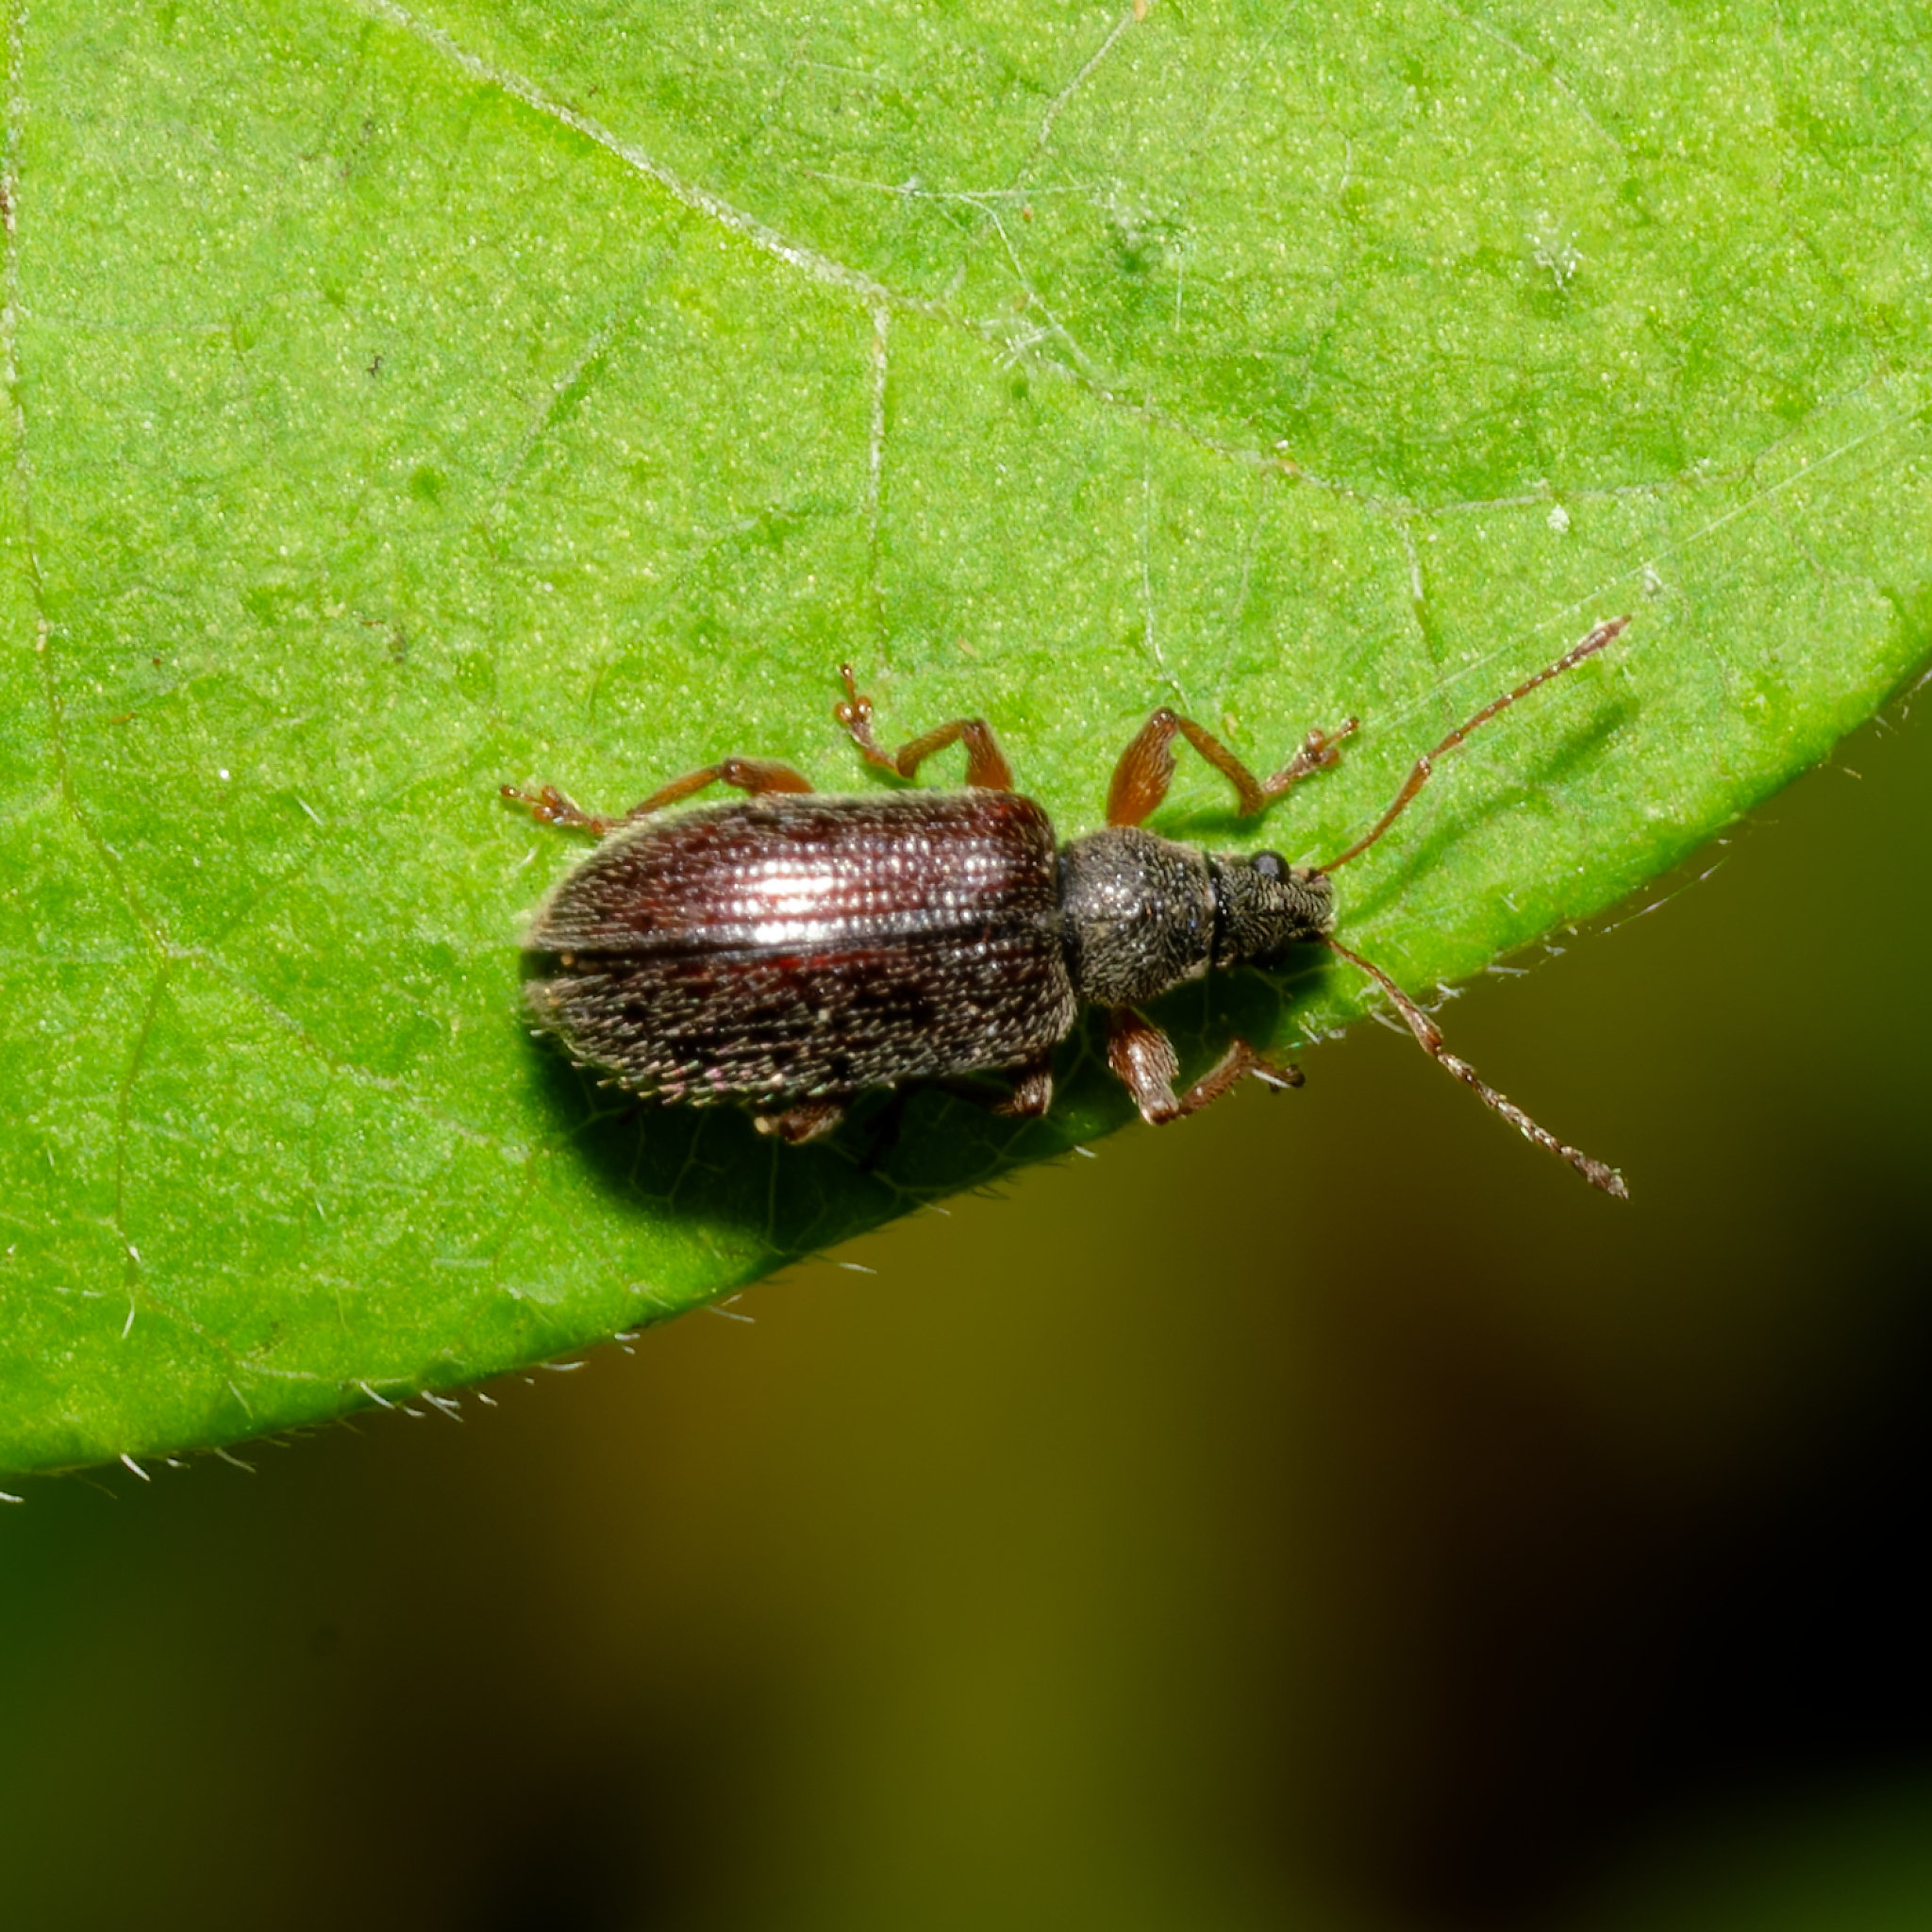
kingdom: Animalia
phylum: Arthropoda
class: Insecta
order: Coleoptera
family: Curculionidae
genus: Phyllobius
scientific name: Phyllobius oblongus
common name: Brown leaf weevil
